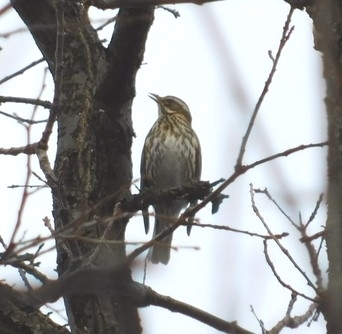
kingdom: Animalia
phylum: Chordata
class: Aves
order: Passeriformes
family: Turdidae
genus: Turdus
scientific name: Turdus iliacus
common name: Redwing
